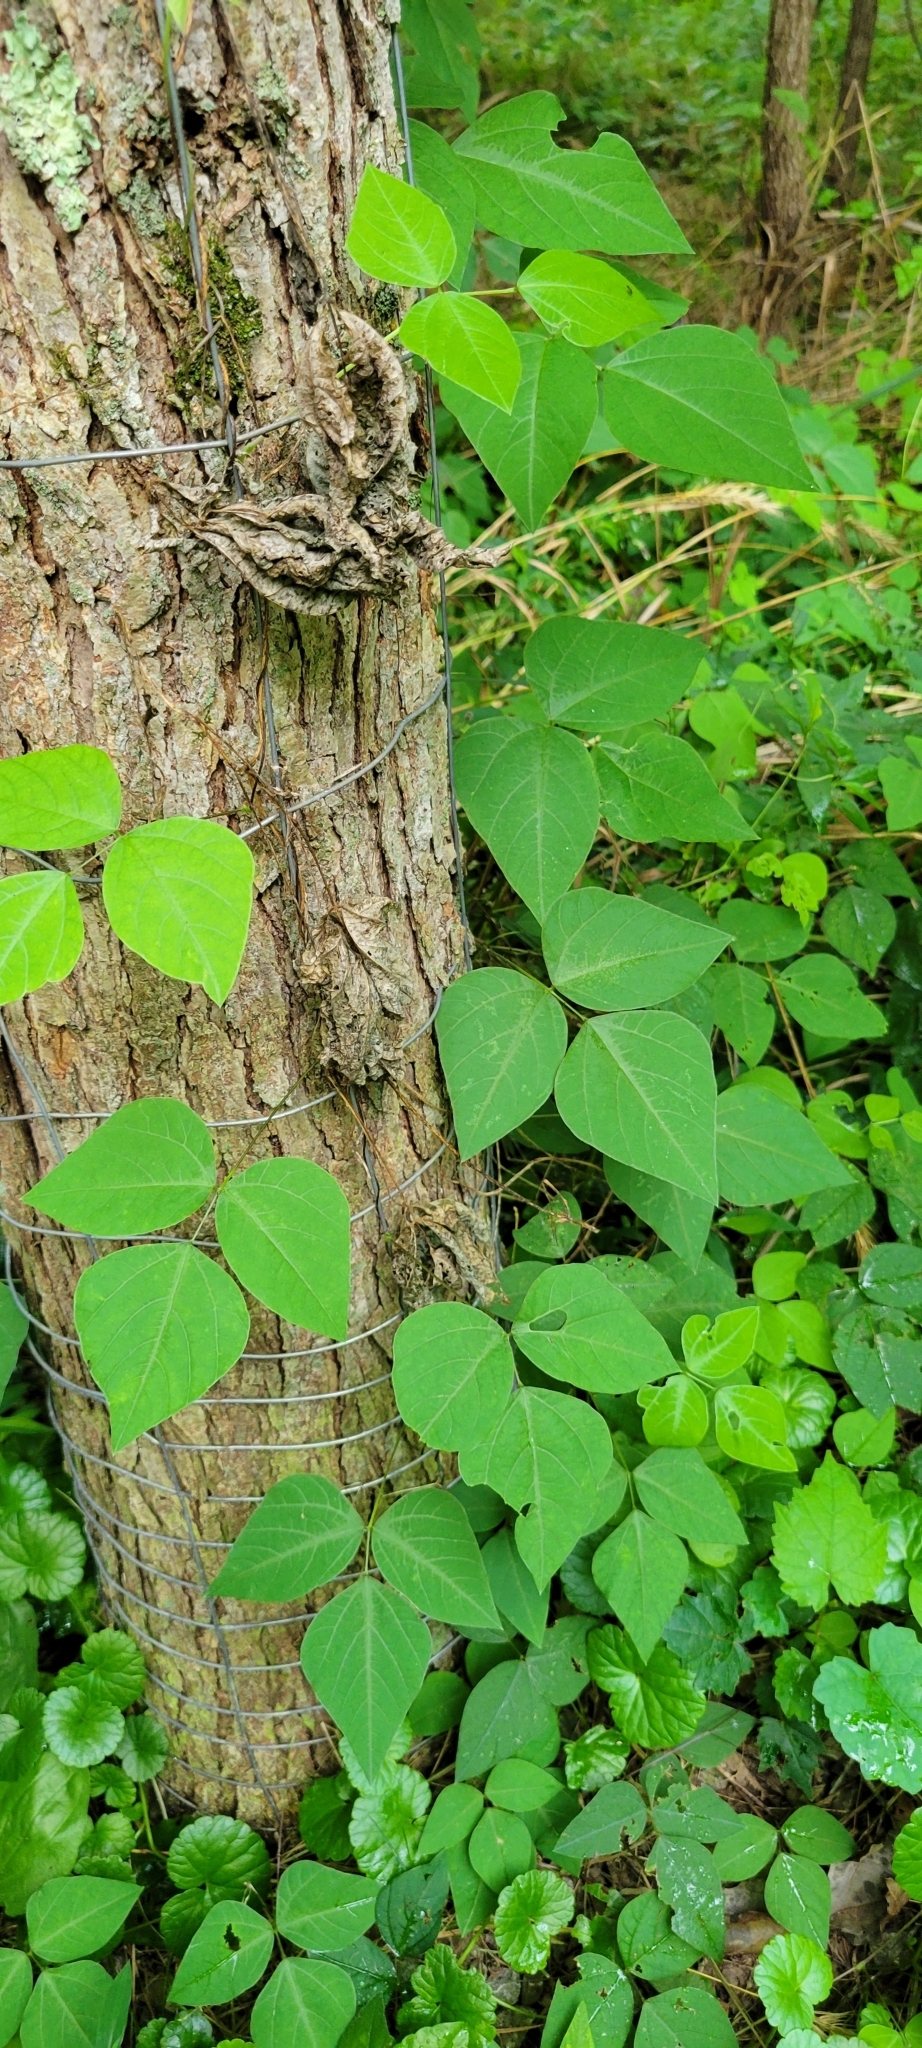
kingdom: Plantae
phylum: Tracheophyta
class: Magnoliopsida
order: Fabales
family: Fabaceae
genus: Amphicarpaea
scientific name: Amphicarpaea bracteata
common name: American hog peanut
